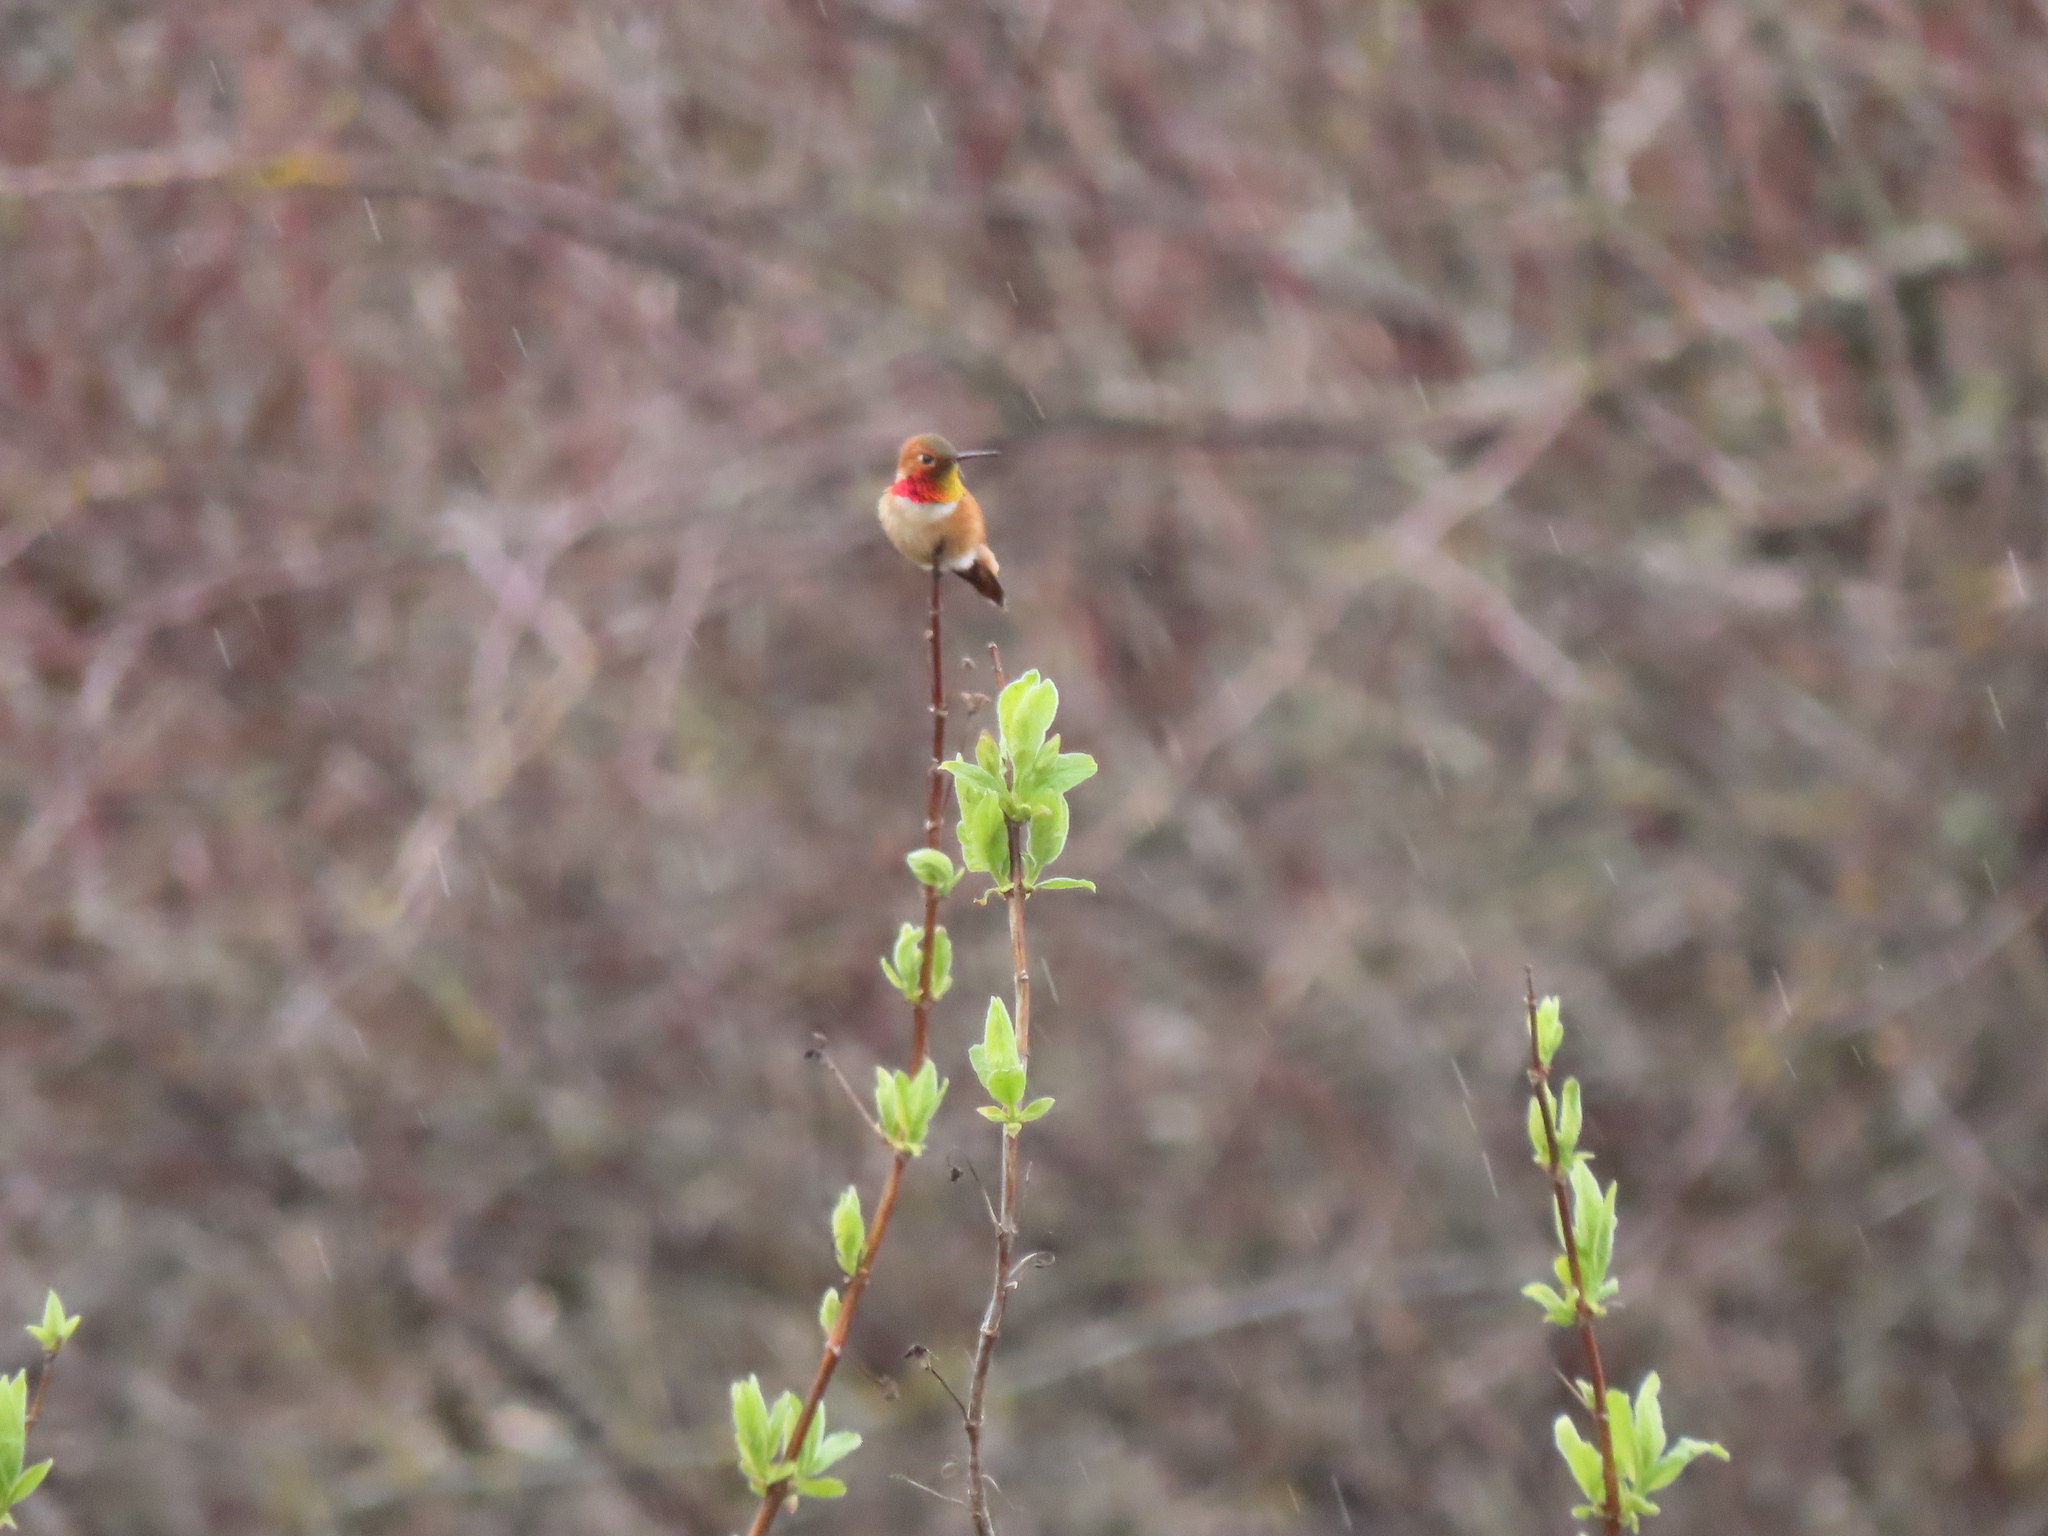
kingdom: Animalia
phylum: Chordata
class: Aves
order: Apodiformes
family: Trochilidae
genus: Selasphorus
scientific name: Selasphorus rufus
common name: Rufous hummingbird
